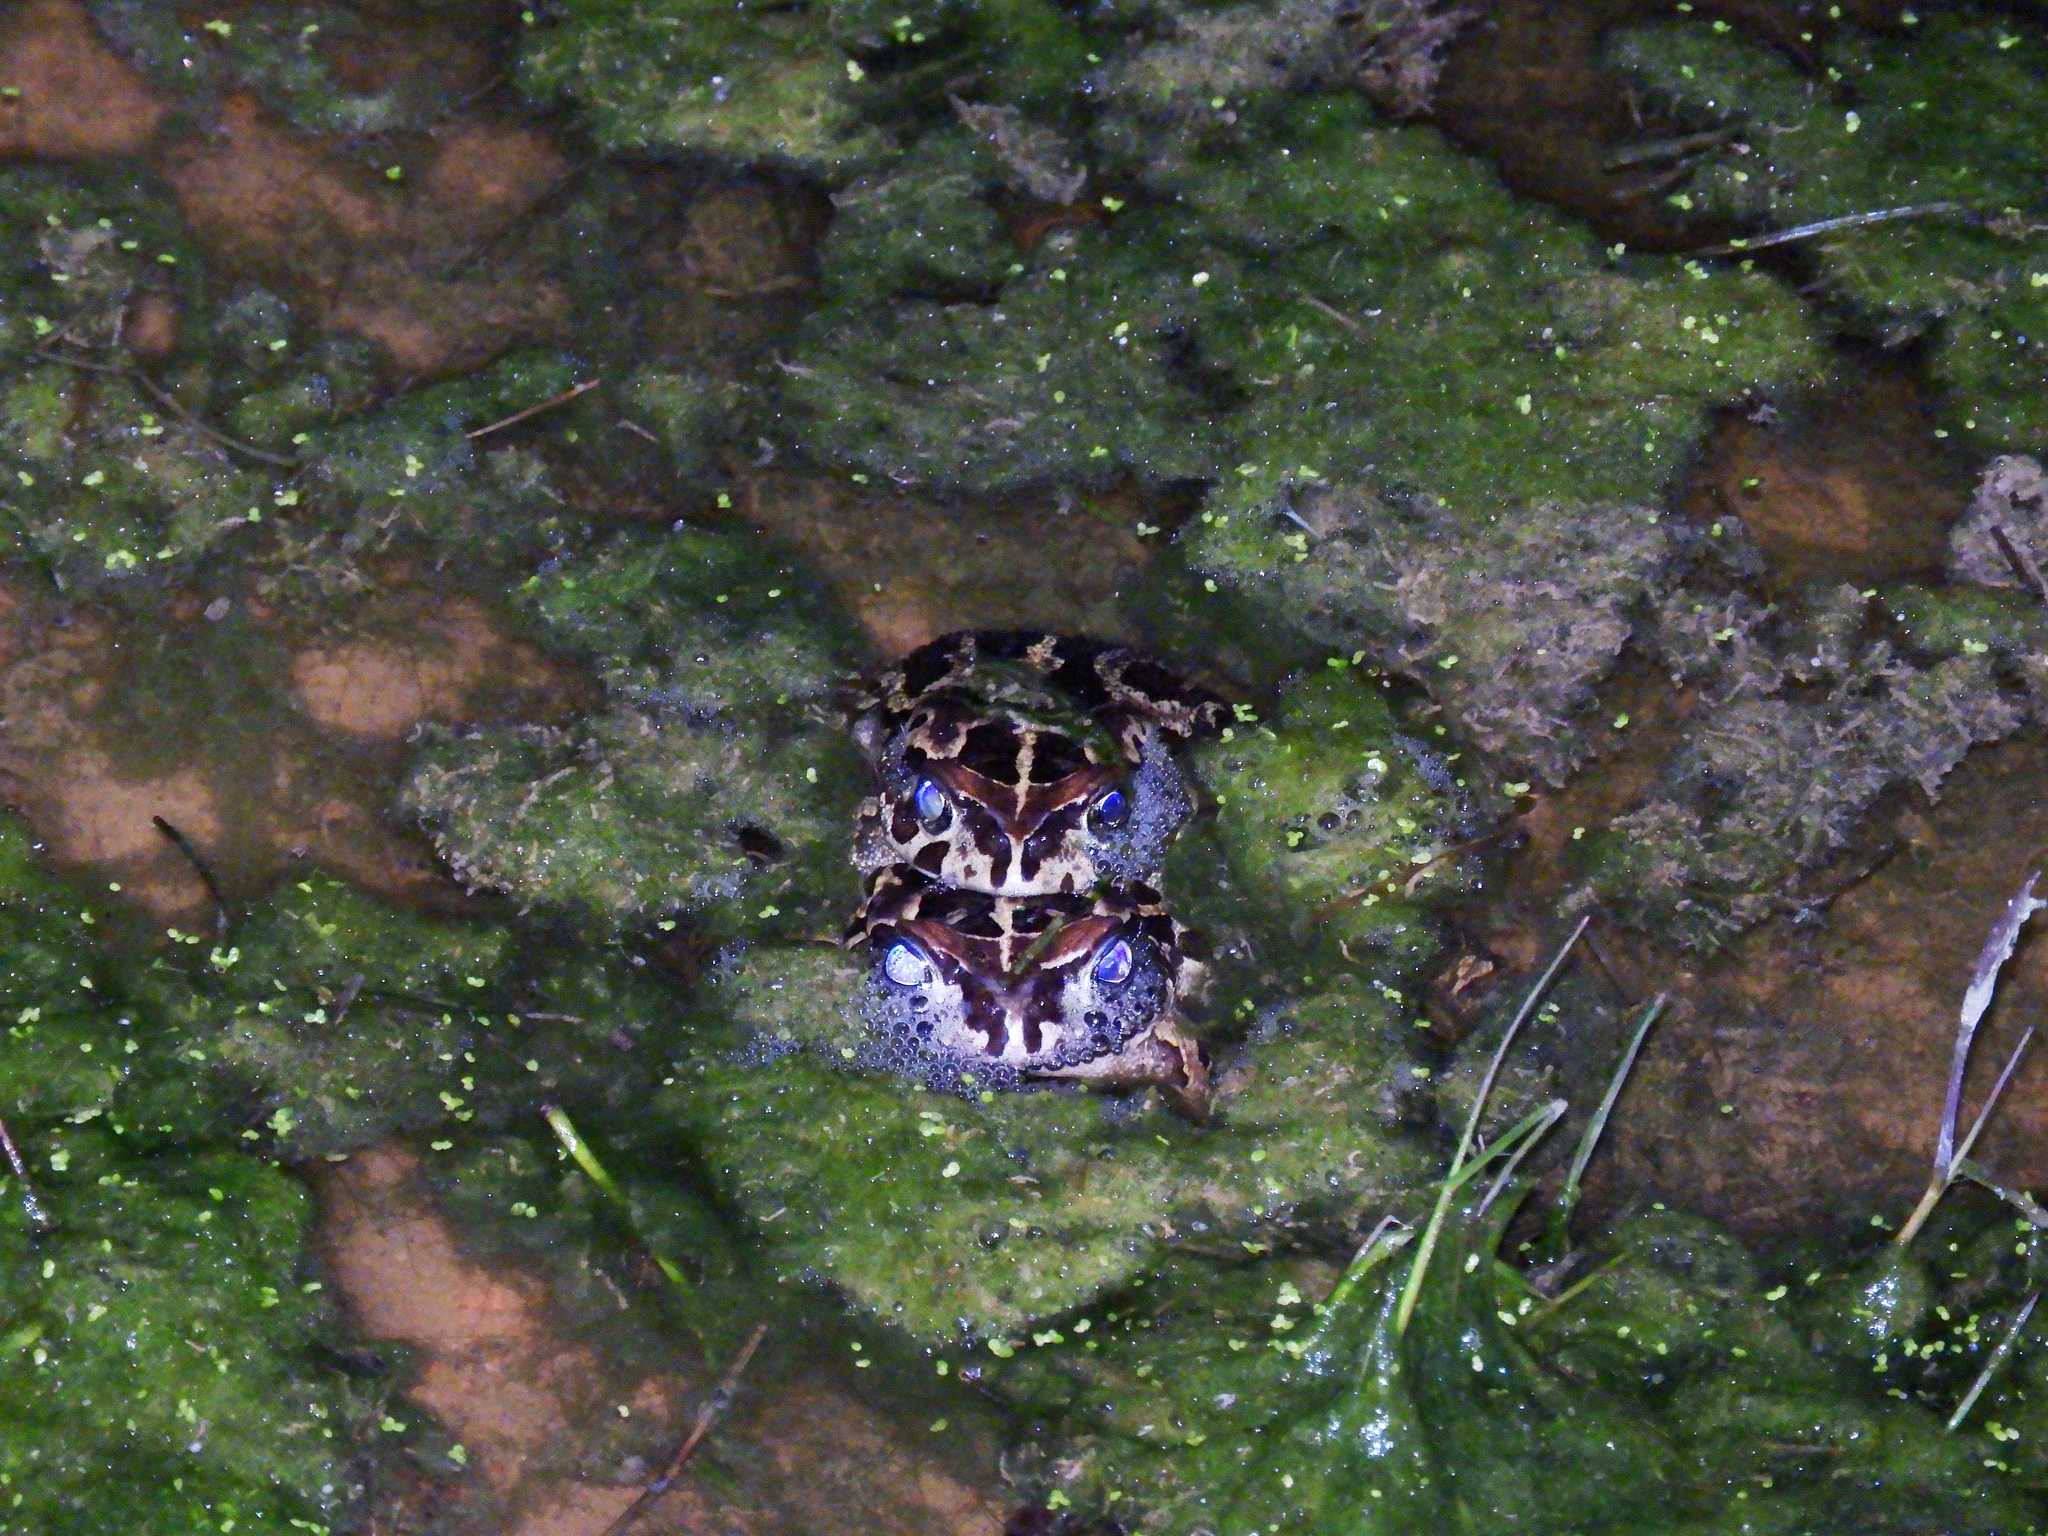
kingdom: Animalia
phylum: Chordata
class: Amphibia
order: Anura
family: Bufonidae
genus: Sclerophrys
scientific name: Sclerophrys pantherina
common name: Panther toad
